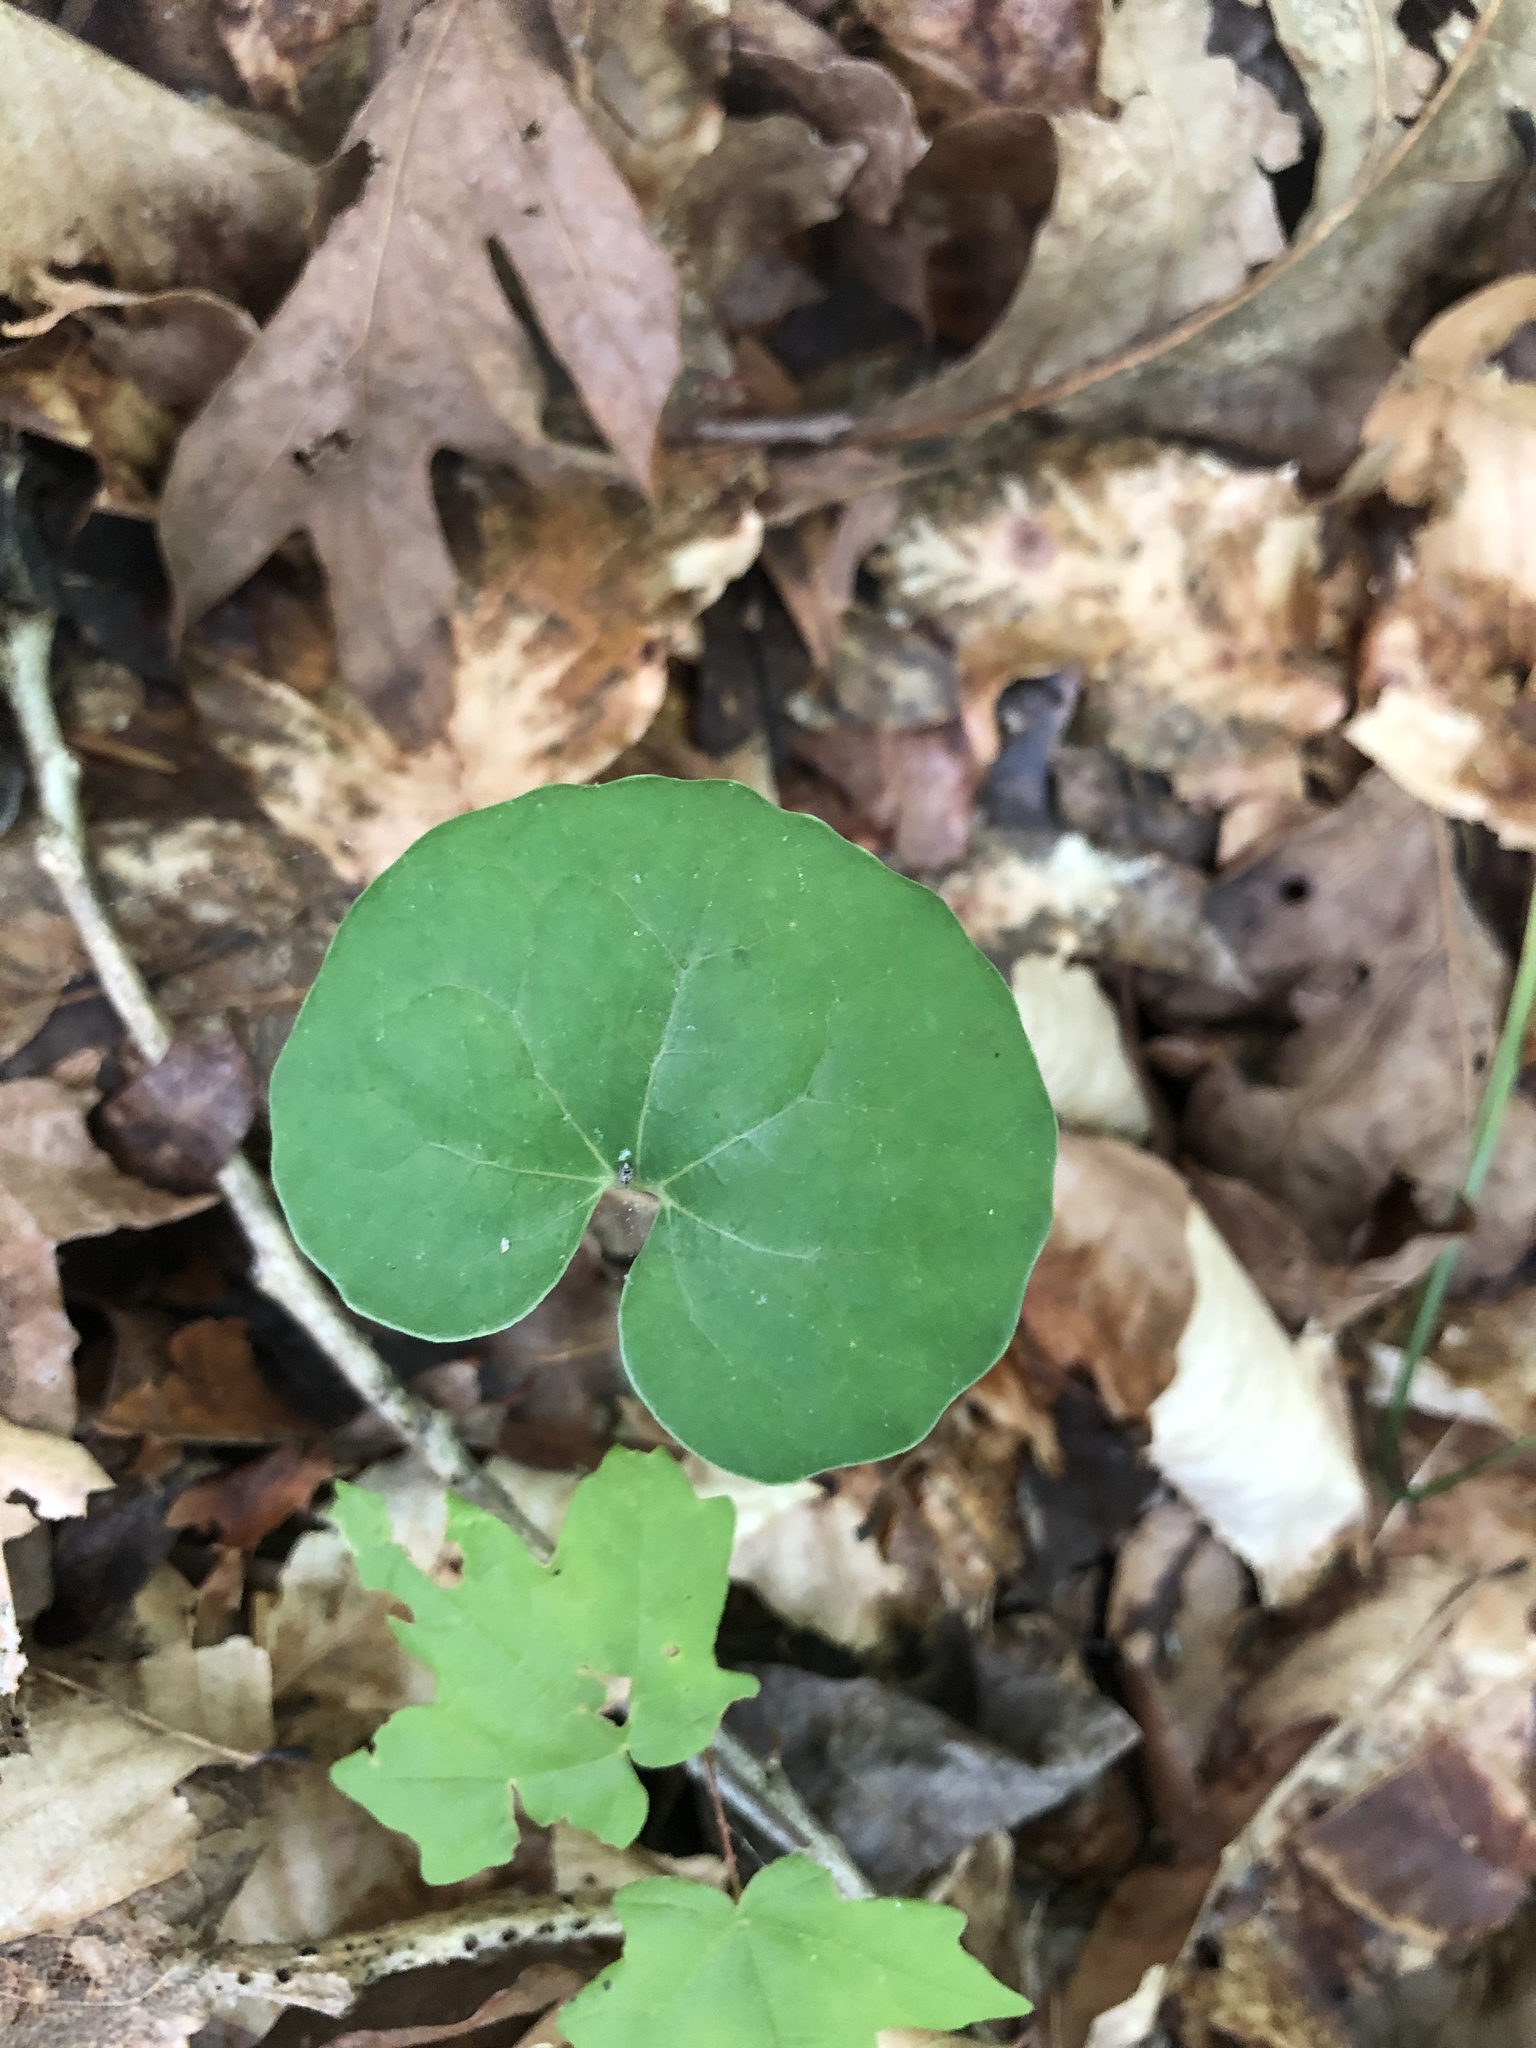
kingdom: Plantae
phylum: Tracheophyta
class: Magnoliopsida
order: Ranunculales
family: Papaveraceae
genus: Sanguinaria
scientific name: Sanguinaria canadensis
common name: Bloodroot
